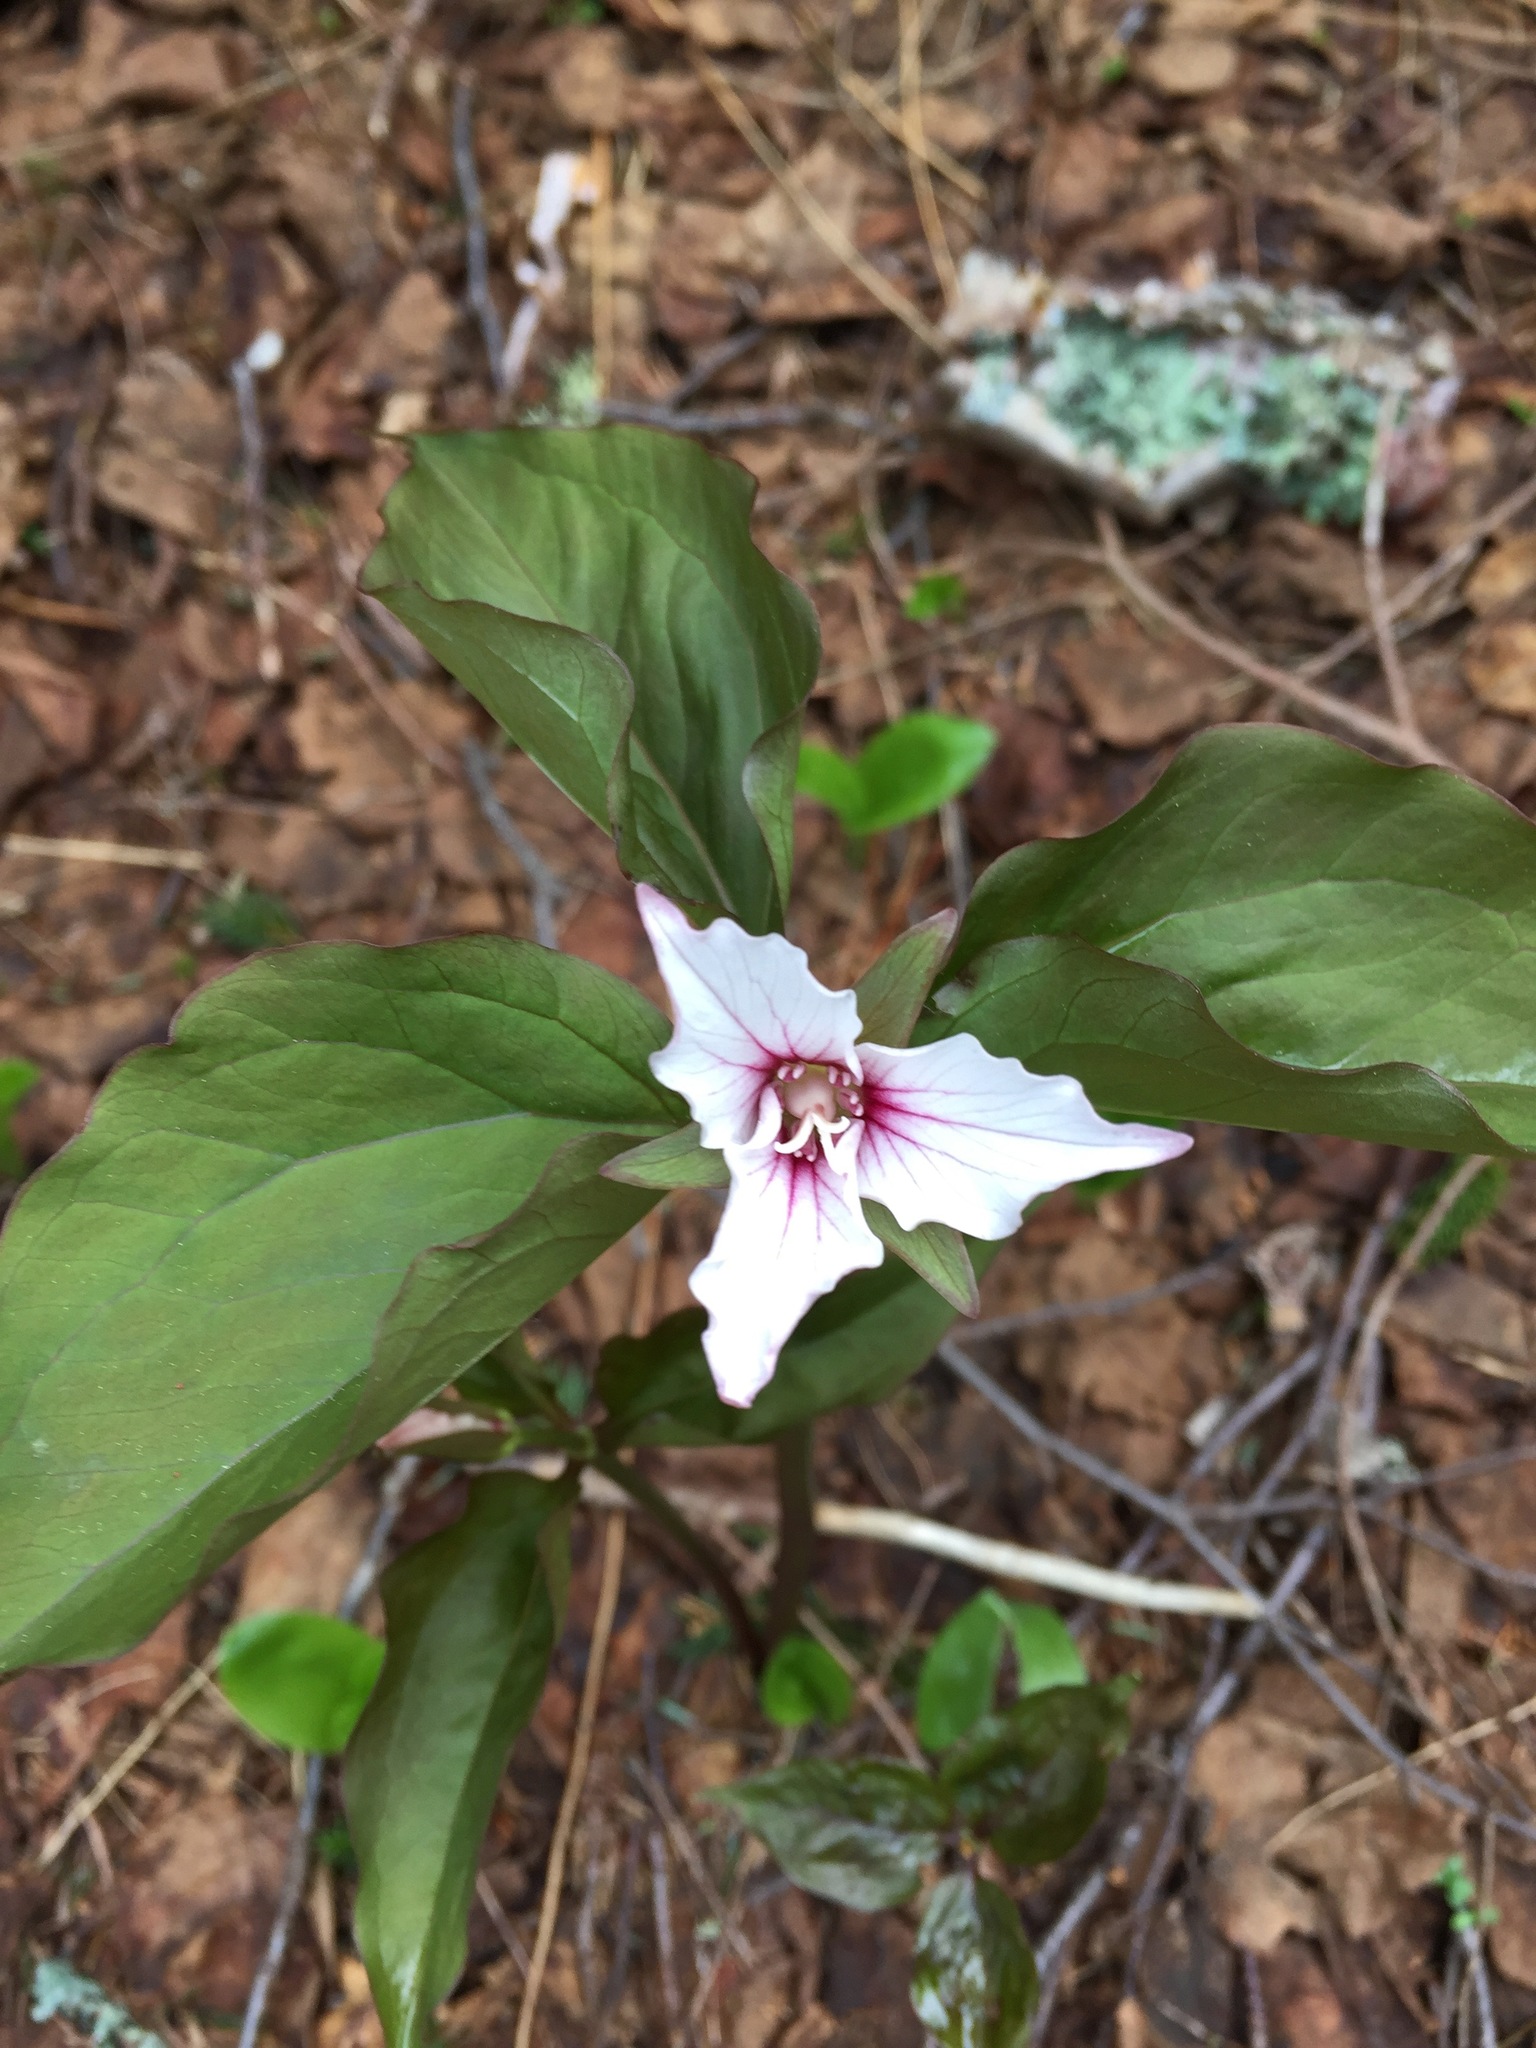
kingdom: Plantae
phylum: Tracheophyta
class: Liliopsida
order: Liliales
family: Melanthiaceae
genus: Trillium
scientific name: Trillium undulatum
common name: Paint trillium
